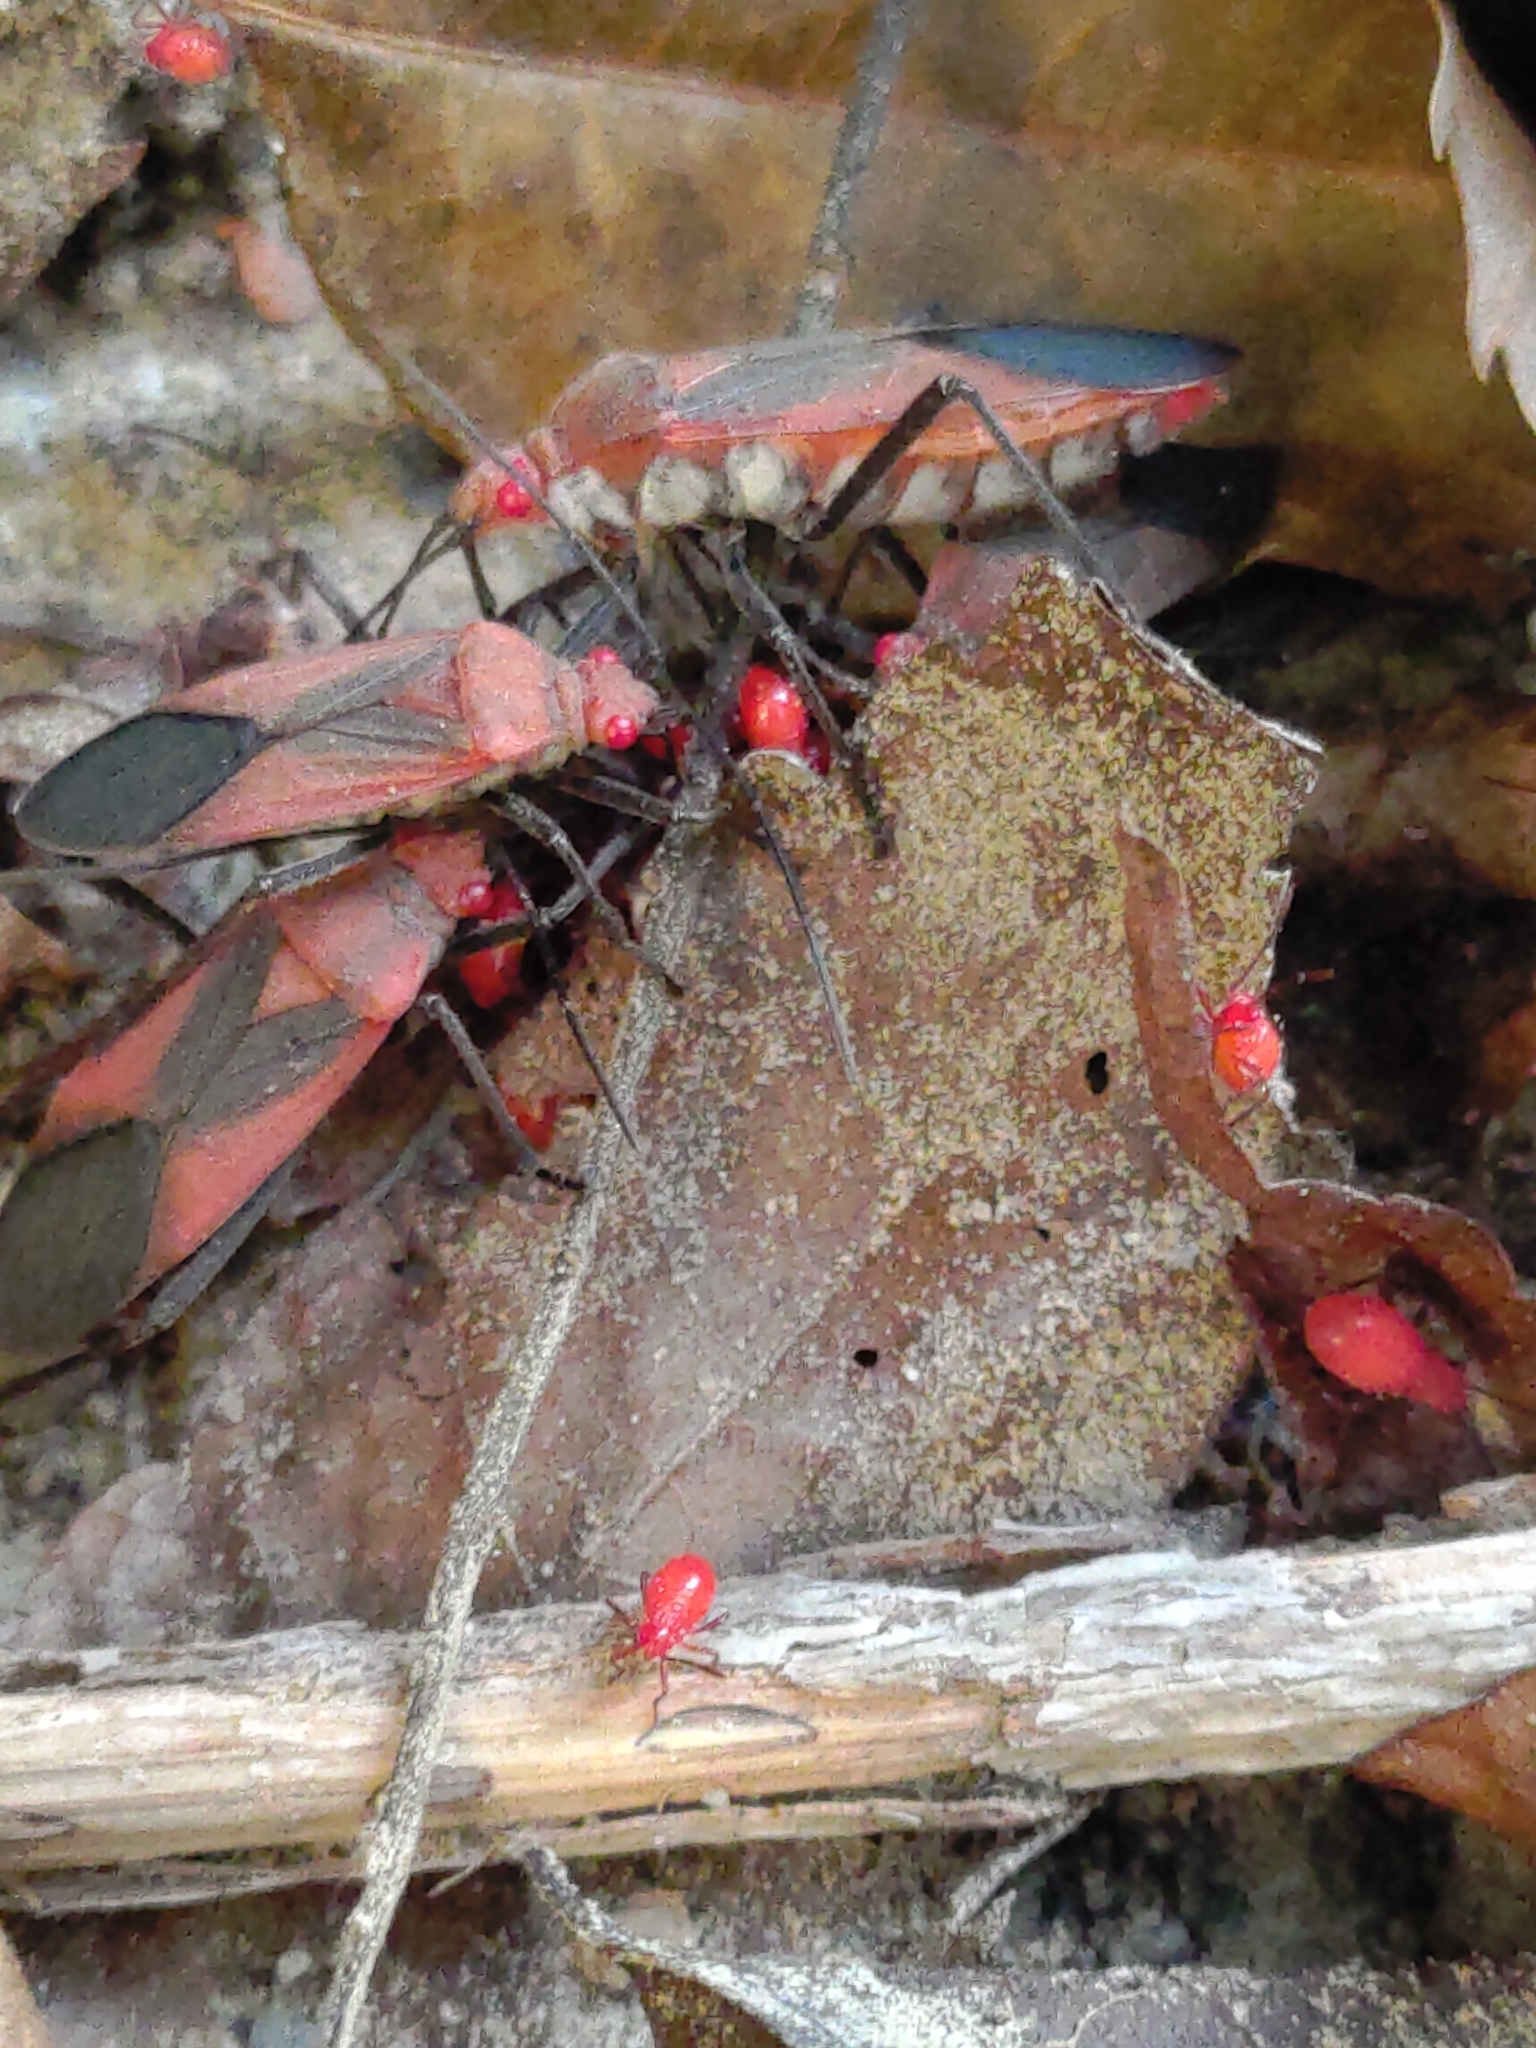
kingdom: Animalia
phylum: Arthropoda
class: Insecta
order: Hemiptera
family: Rhopalidae
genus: Leptocoris
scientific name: Leptocoris vicinus
